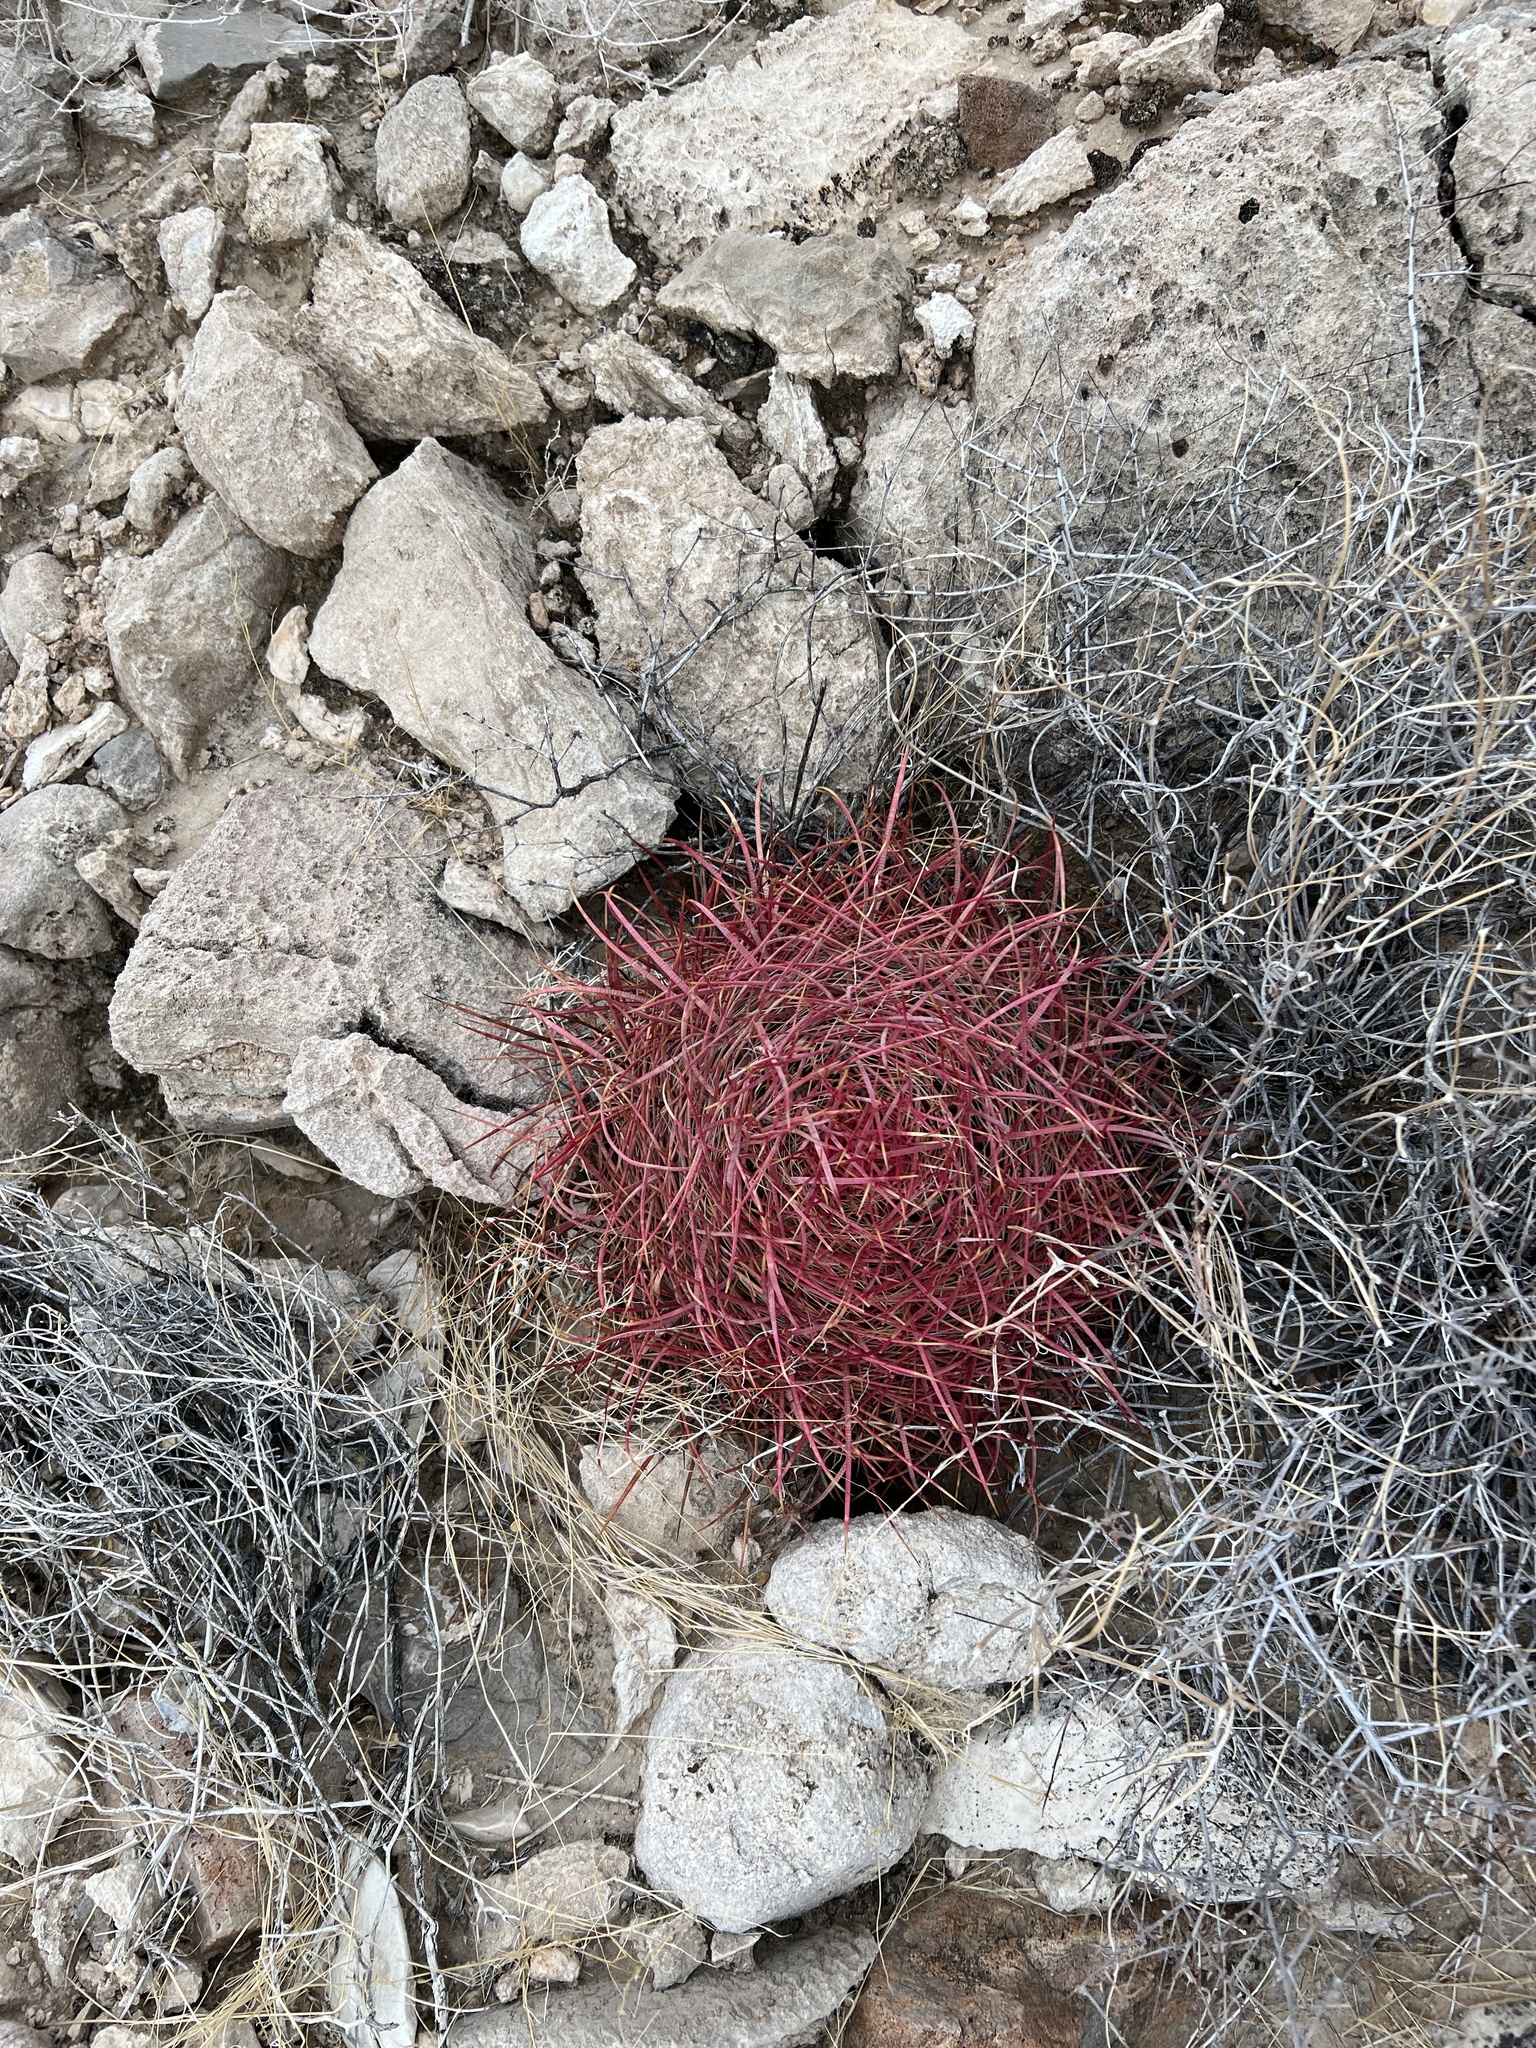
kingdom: Plantae
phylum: Tracheophyta
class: Magnoliopsida
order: Caryophyllales
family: Cactaceae
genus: Ferocactus
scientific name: Ferocactus cylindraceus
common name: California barrel cactus
